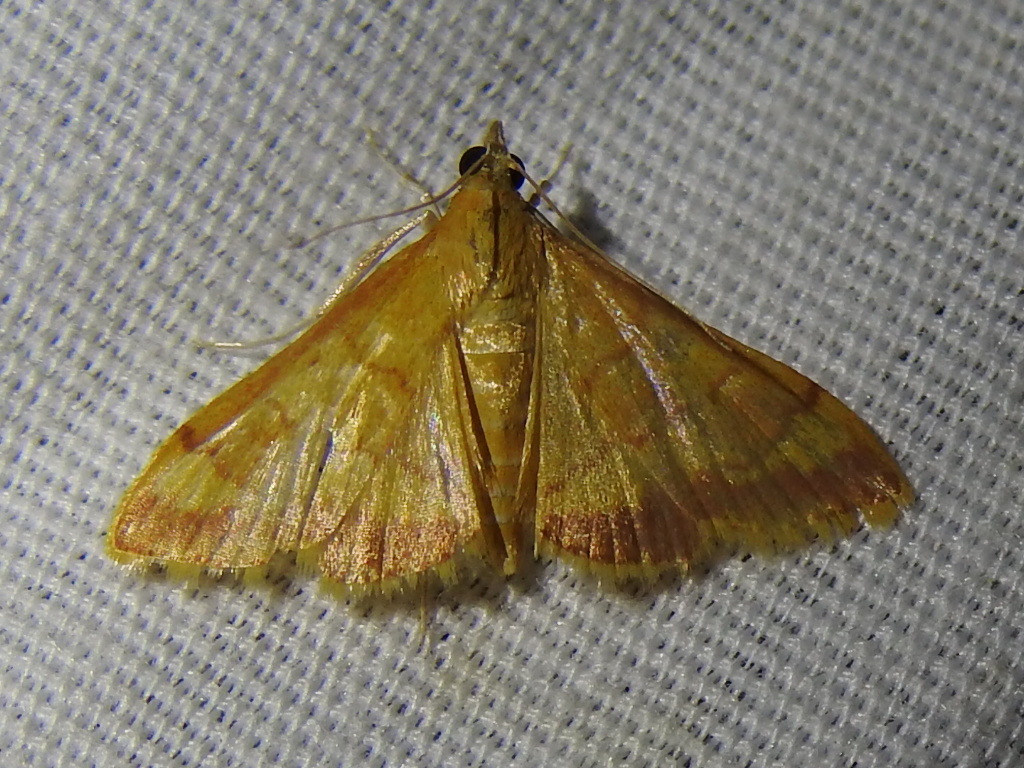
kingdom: Animalia
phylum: Arthropoda
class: Insecta
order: Lepidoptera
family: Crambidae
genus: Pyrausta
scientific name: Pyrausta pseudonythesalis
